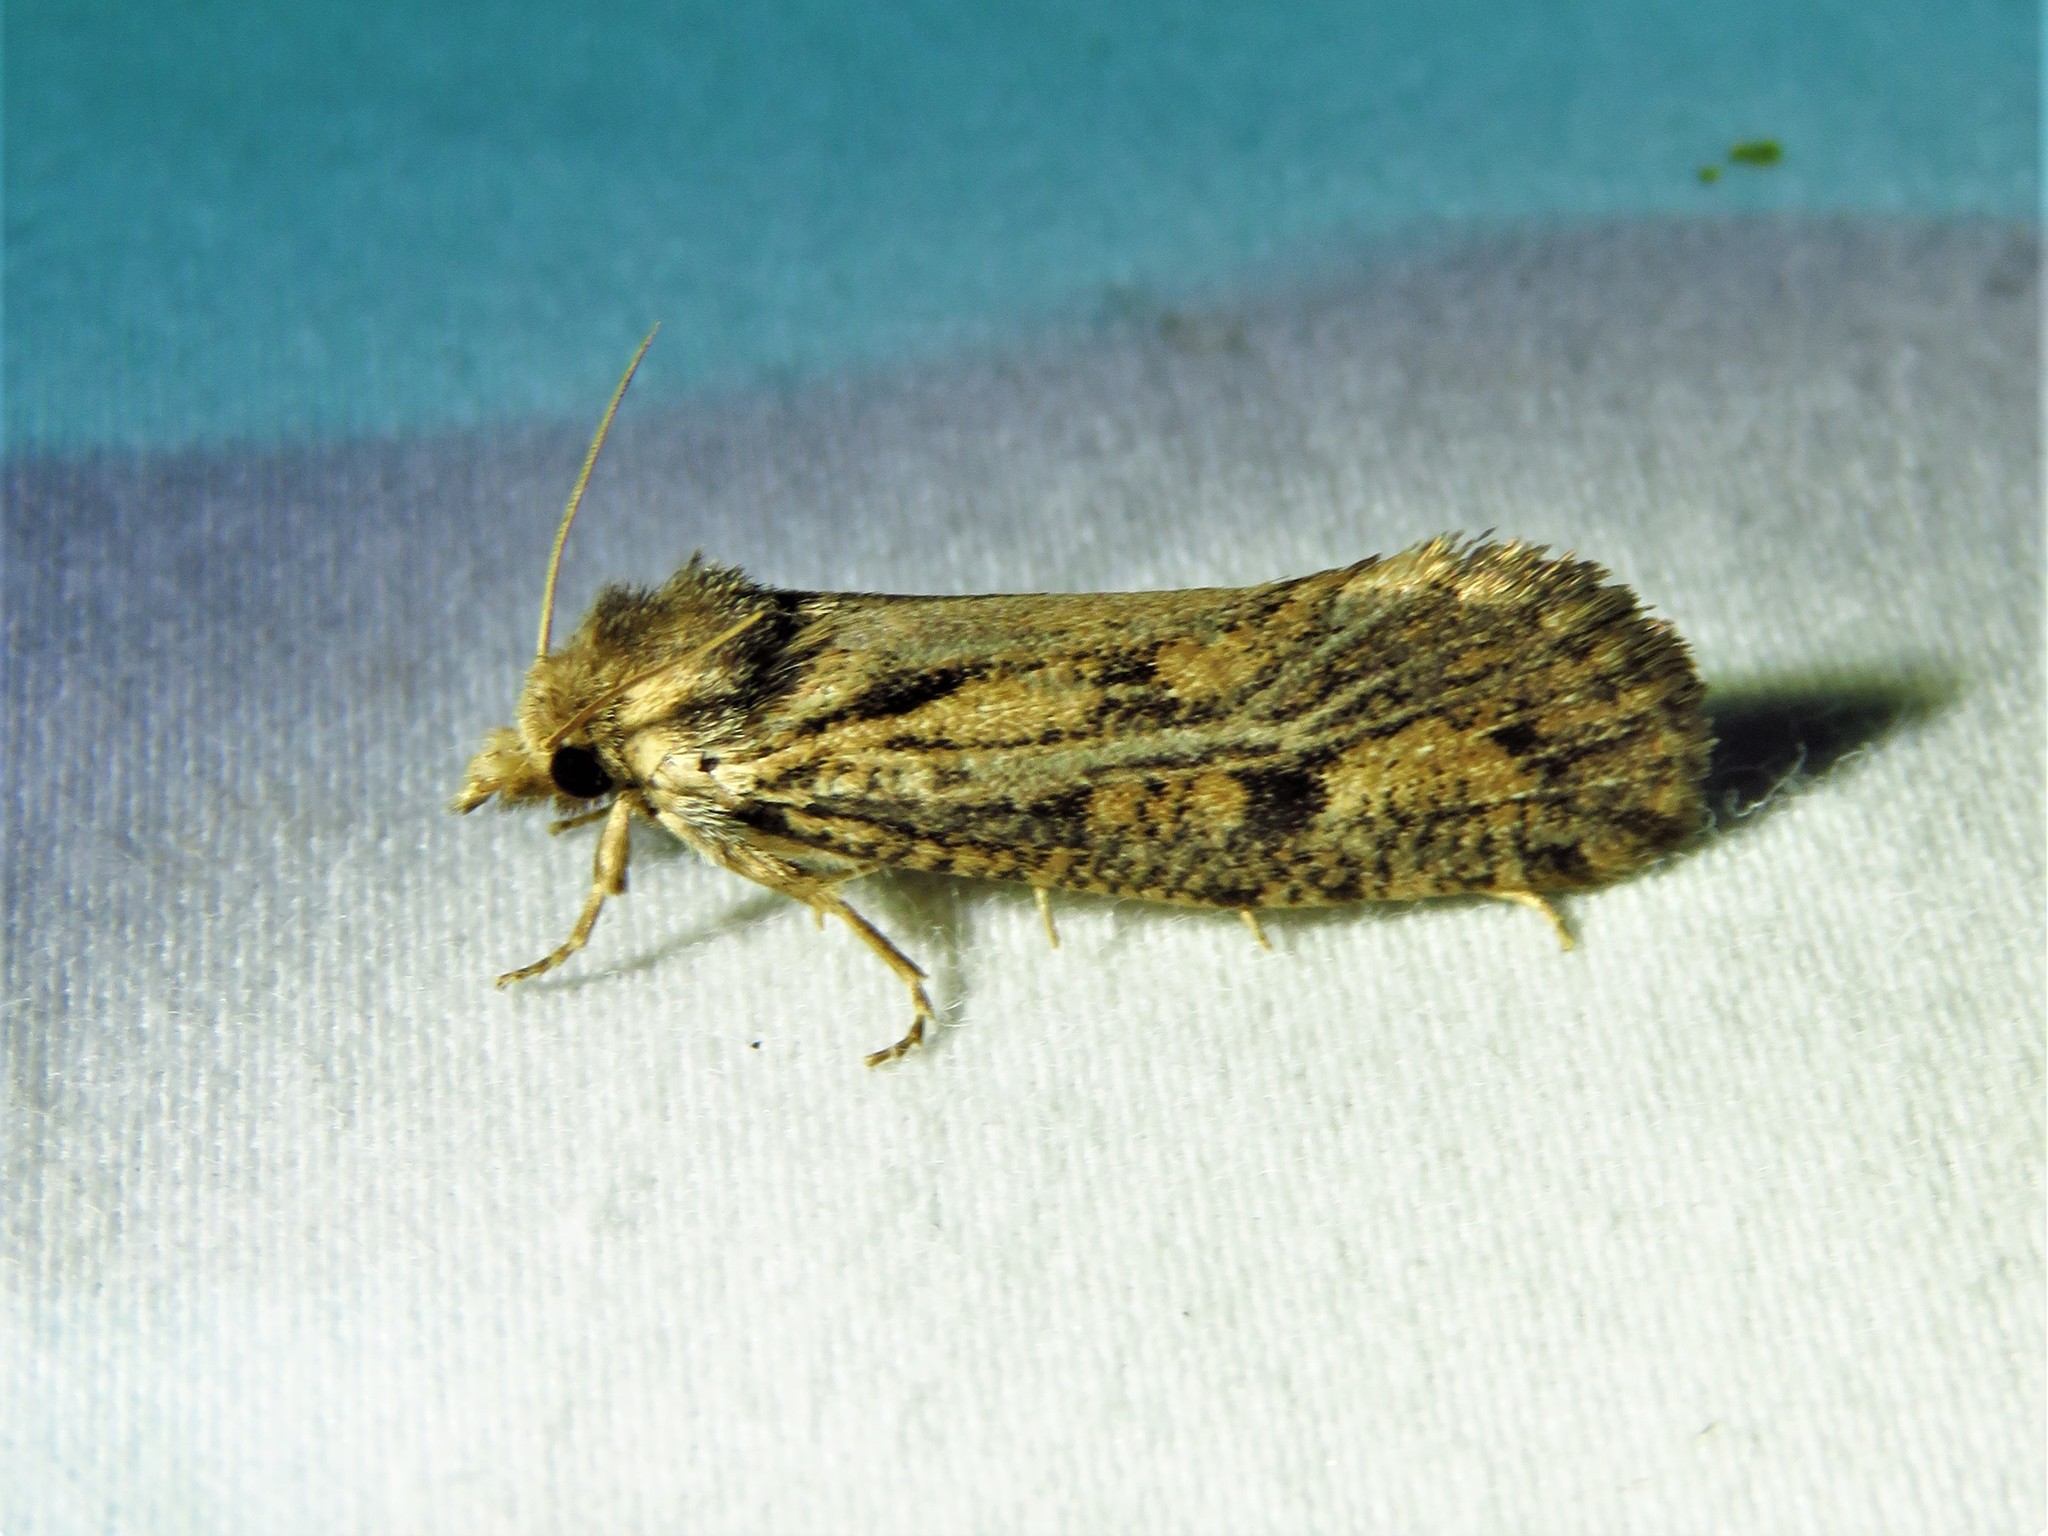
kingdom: Animalia
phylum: Arthropoda
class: Insecta
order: Lepidoptera
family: Tineidae
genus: Acrolophus
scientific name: Acrolophus popeanella
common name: Clemens' grass tubeworm moth
